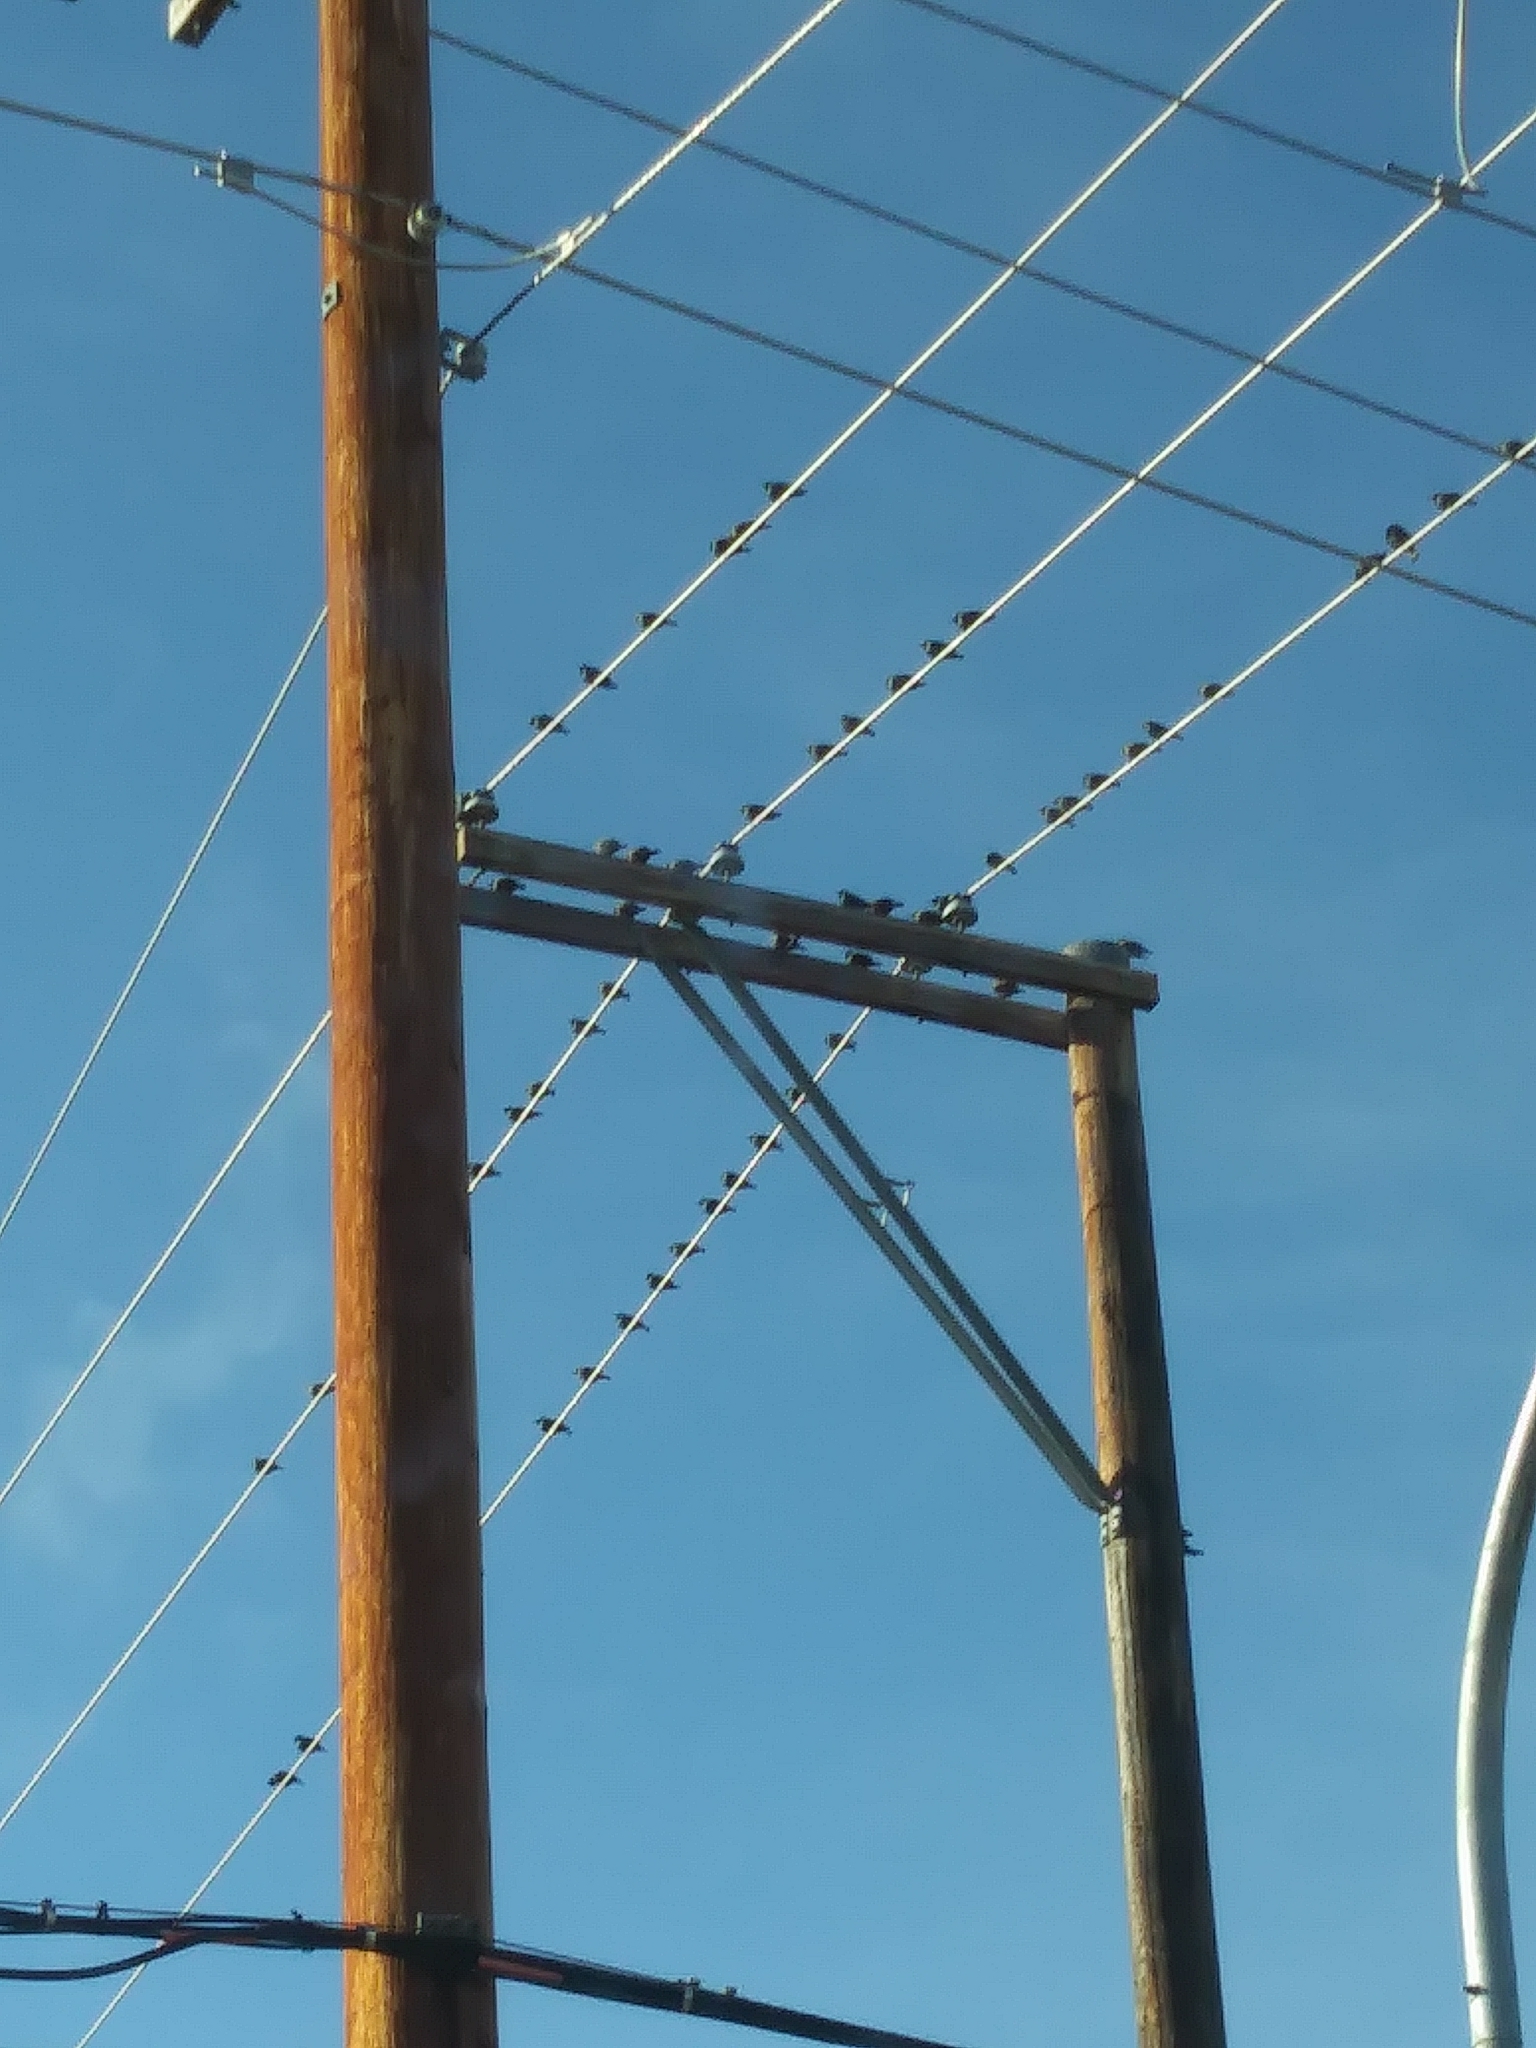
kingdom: Animalia
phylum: Chordata
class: Aves
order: Passeriformes
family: Sturnidae
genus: Sturnus
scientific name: Sturnus vulgaris
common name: Common starling
